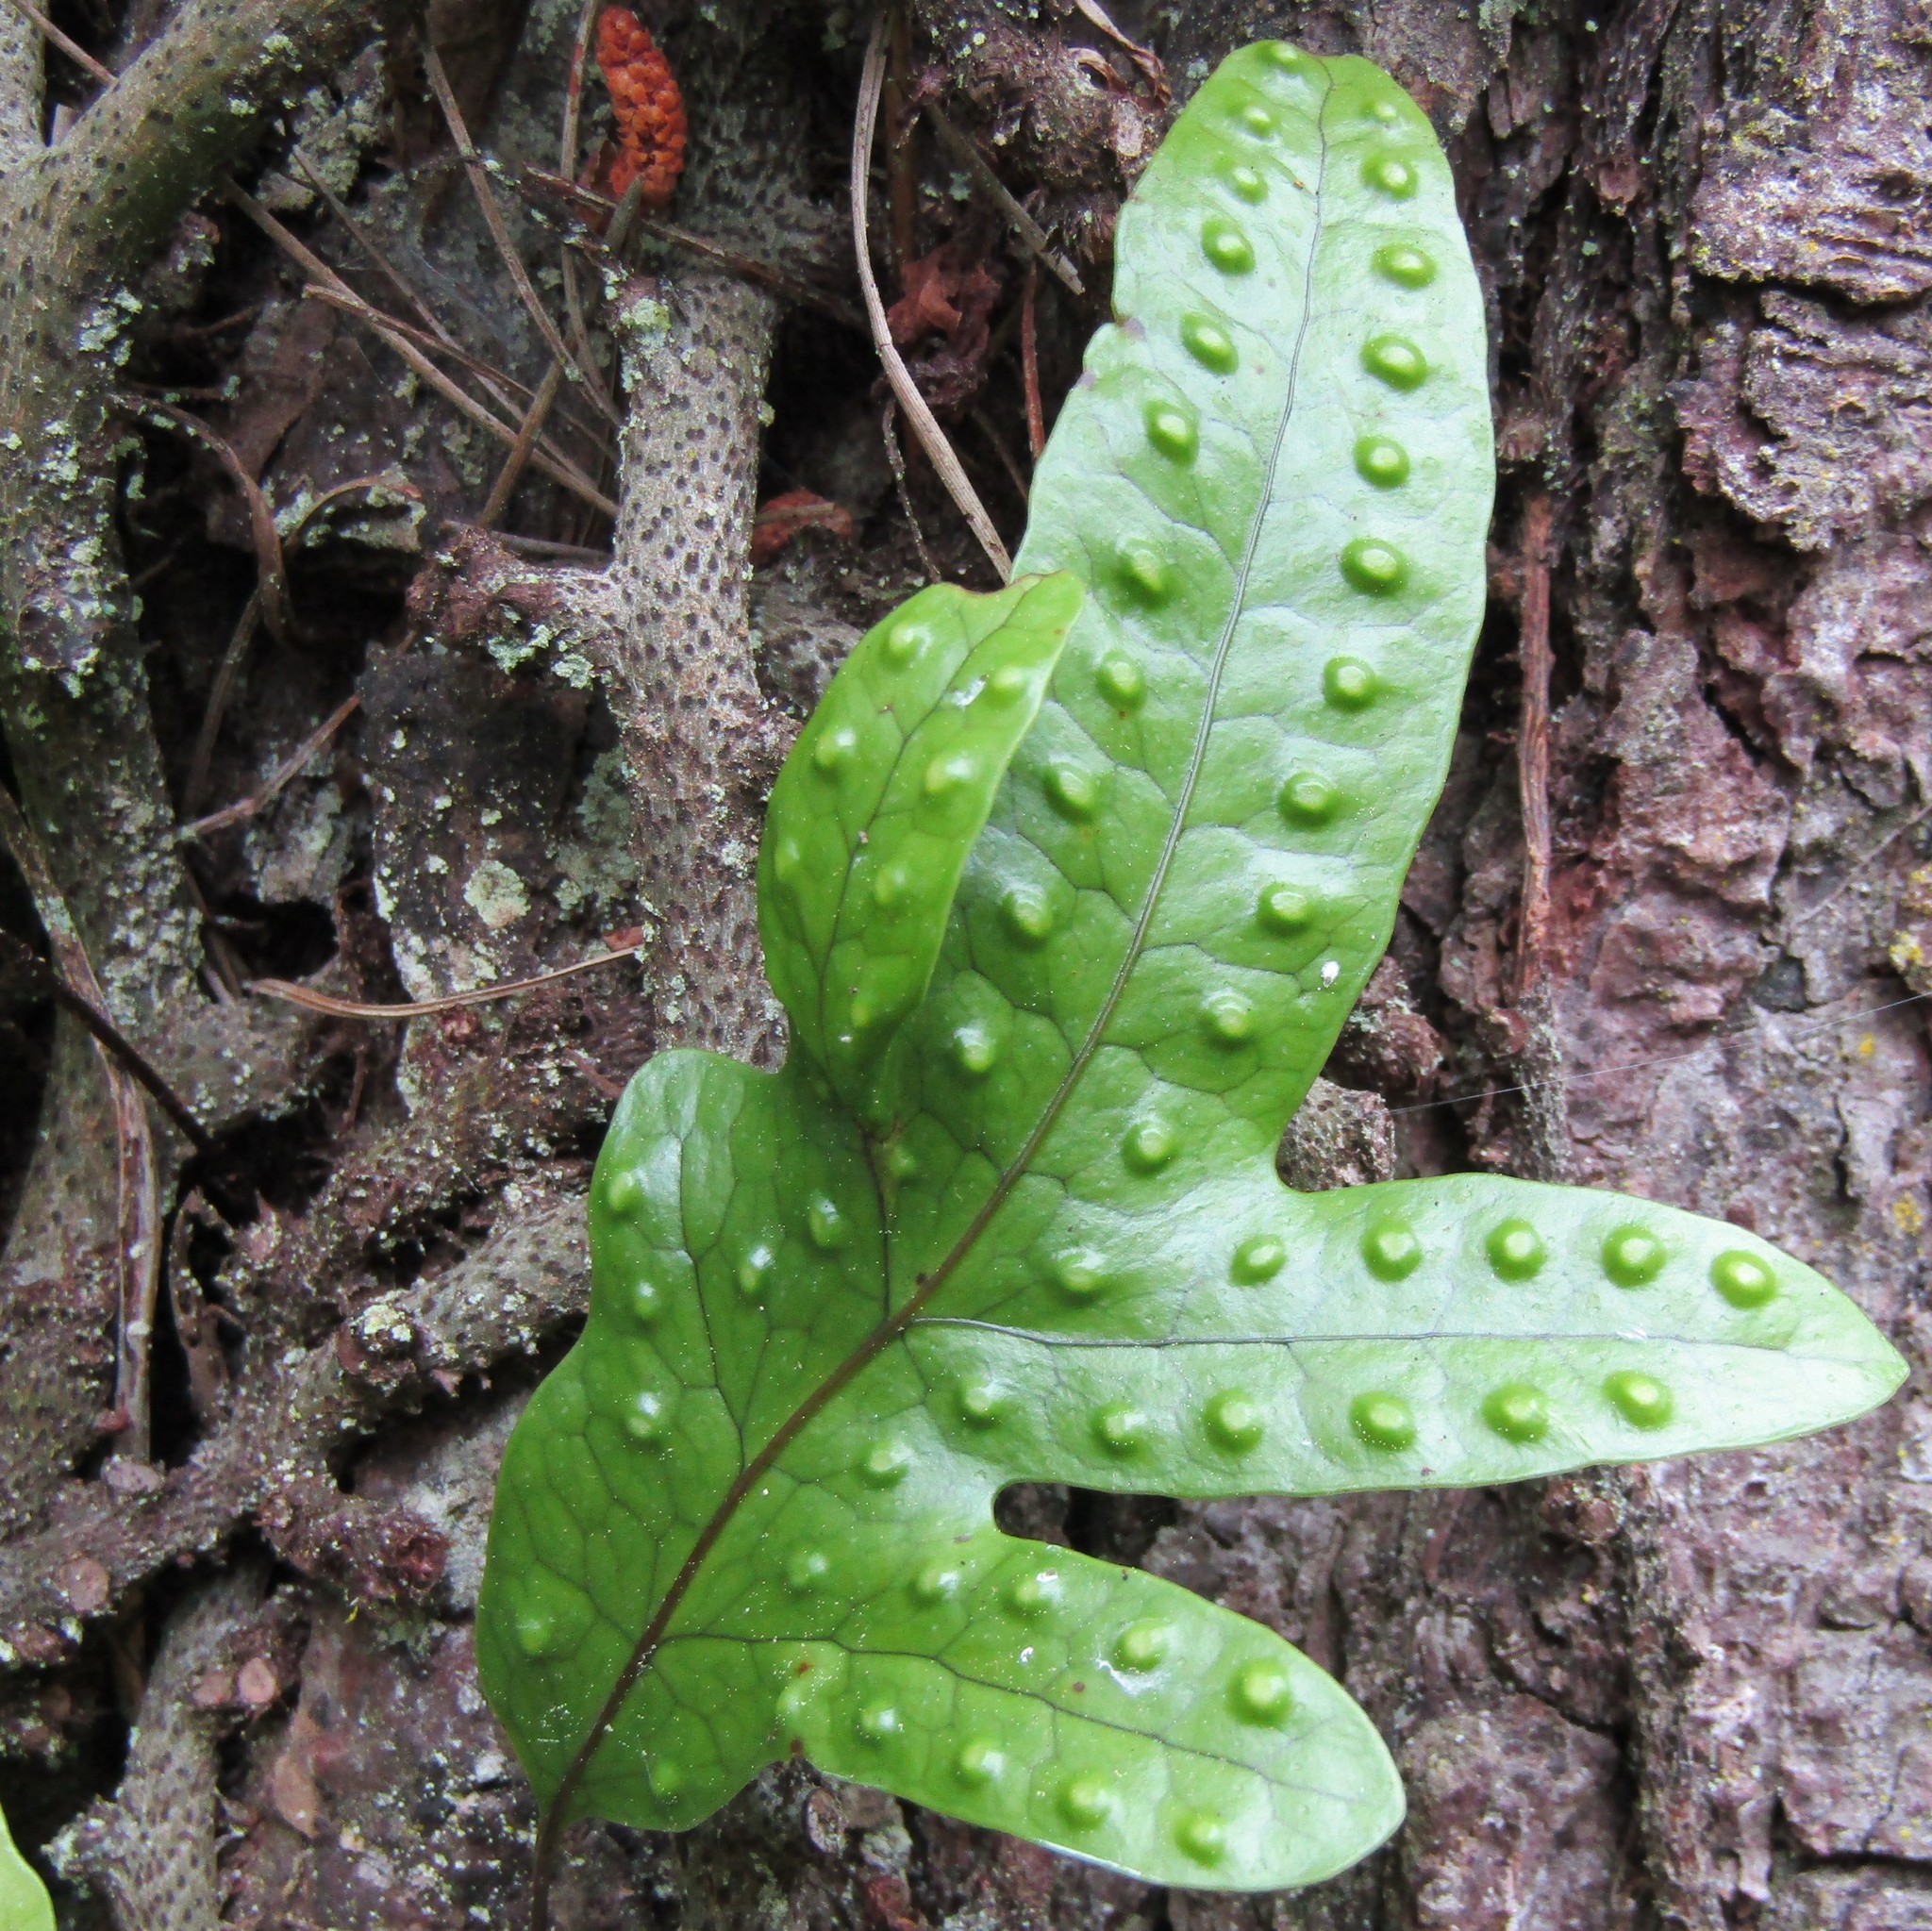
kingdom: Plantae
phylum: Tracheophyta
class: Polypodiopsida
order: Polypodiales
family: Polypodiaceae
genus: Lecanopteris
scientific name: Lecanopteris pustulata
